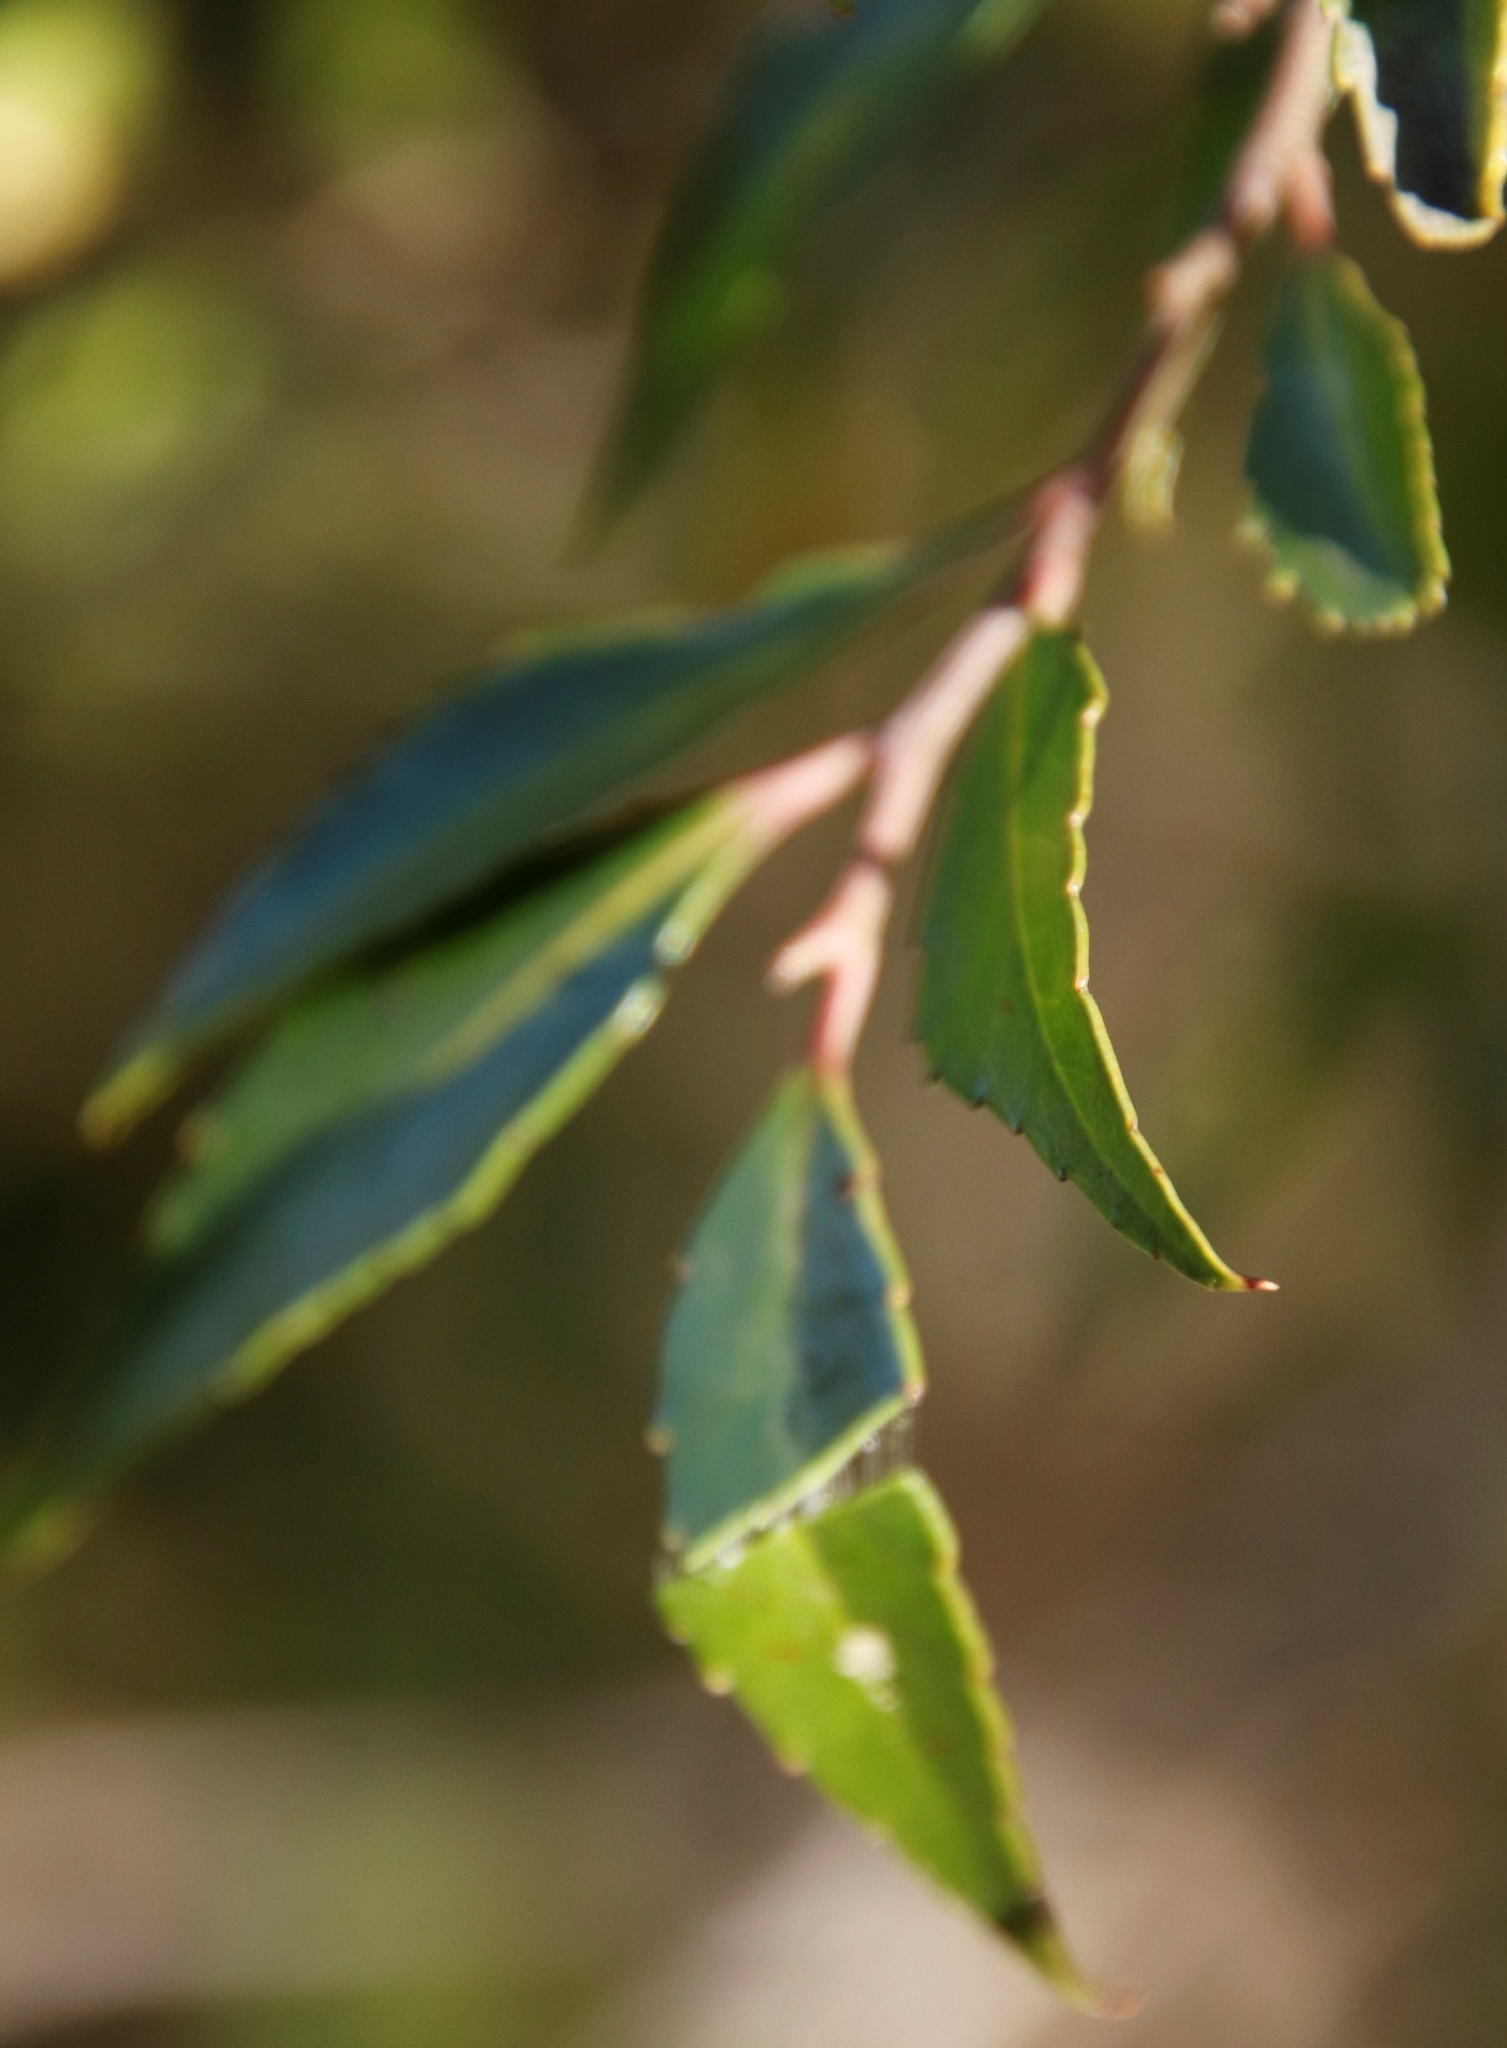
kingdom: Plantae
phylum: Tracheophyta
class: Magnoliopsida
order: Celastrales
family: Celastraceae
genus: Gymnosporia
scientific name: Gymnosporia acuminata
